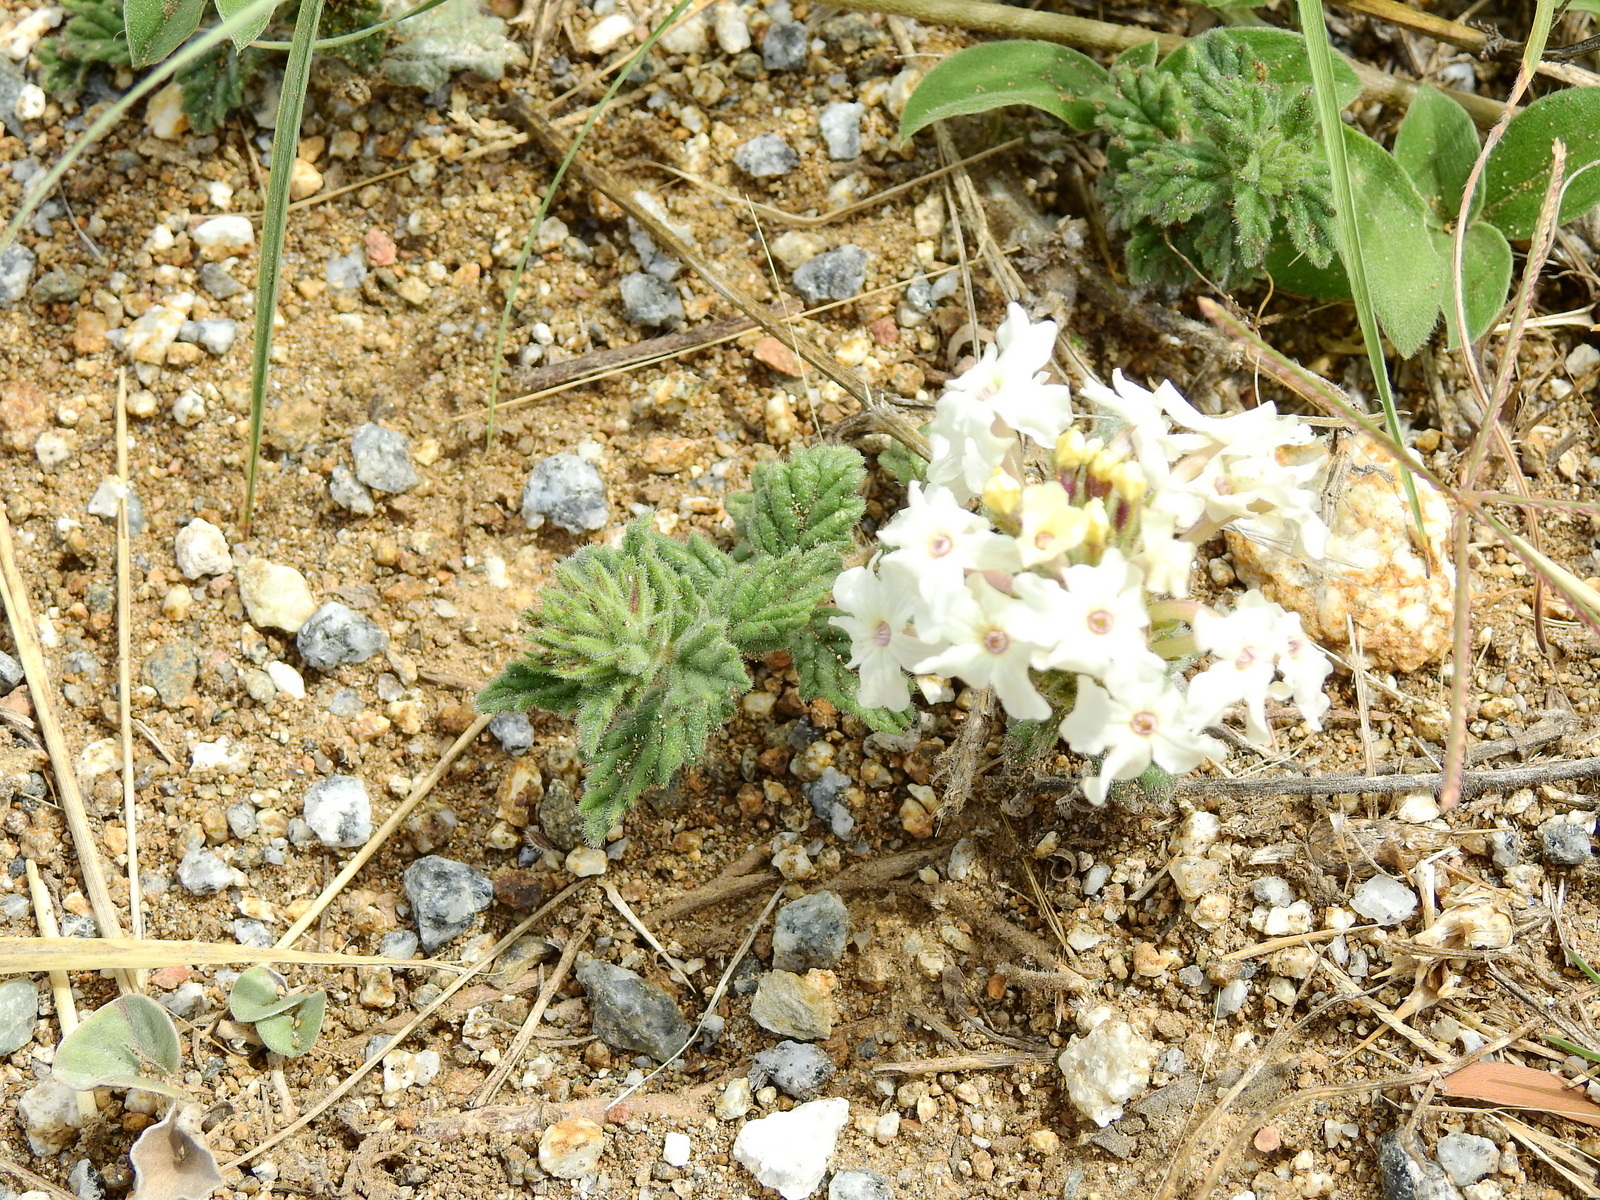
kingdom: Plantae
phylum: Tracheophyta
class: Magnoliopsida
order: Lamiales
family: Verbenaceae
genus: Verbena
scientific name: Verbena platensis
